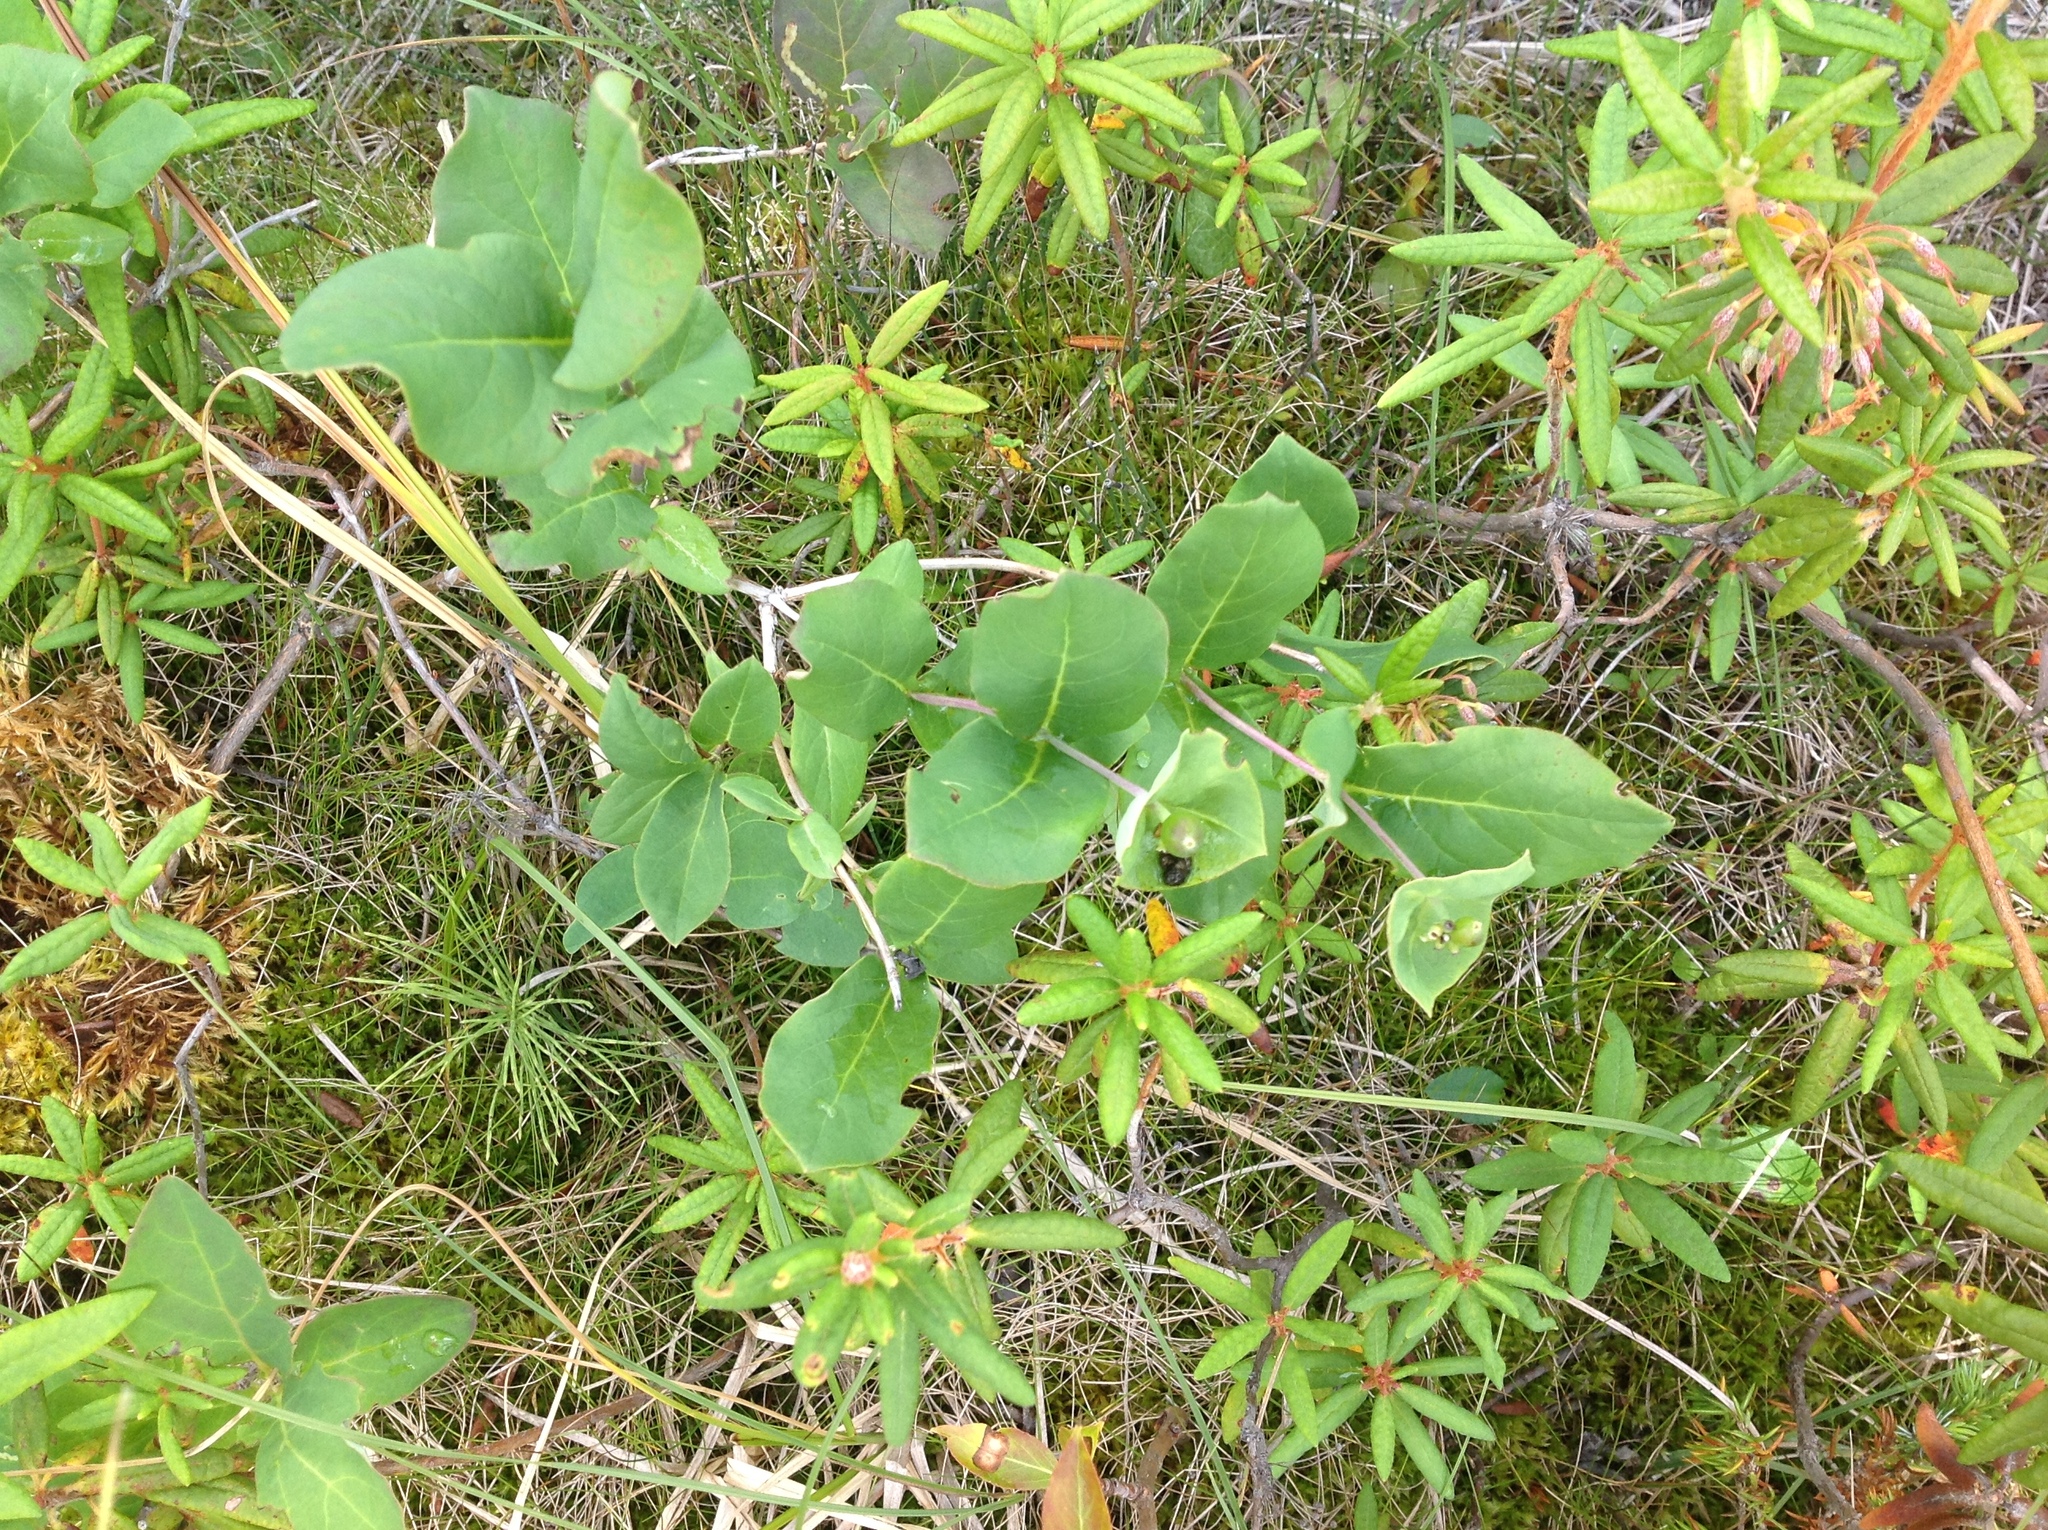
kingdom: Plantae
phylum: Tracheophyta
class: Magnoliopsida
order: Dipsacales
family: Caprifoliaceae
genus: Lonicera
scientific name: Lonicera dioica
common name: Limber honeysuckle
